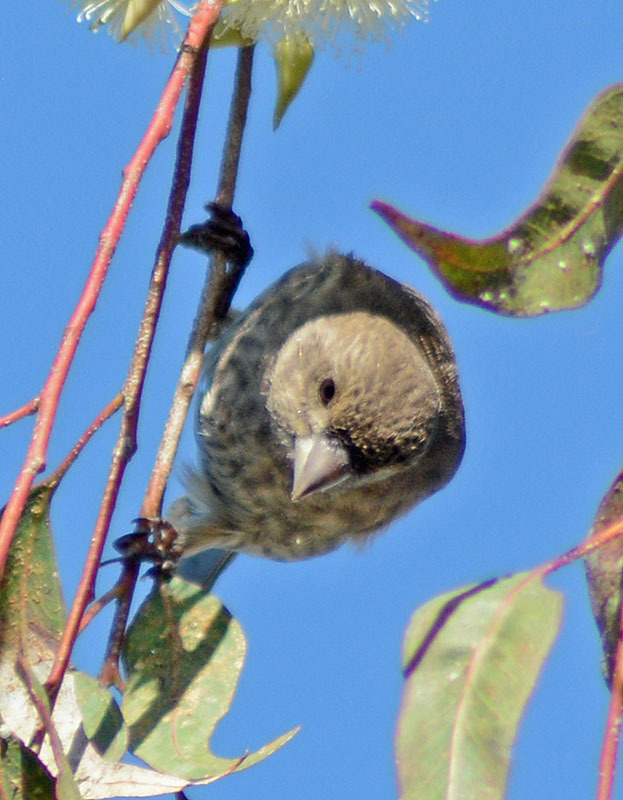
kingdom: Animalia
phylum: Chordata
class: Aves
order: Passeriformes
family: Fringillidae
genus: Haemorhous
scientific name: Haemorhous mexicanus
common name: House finch
